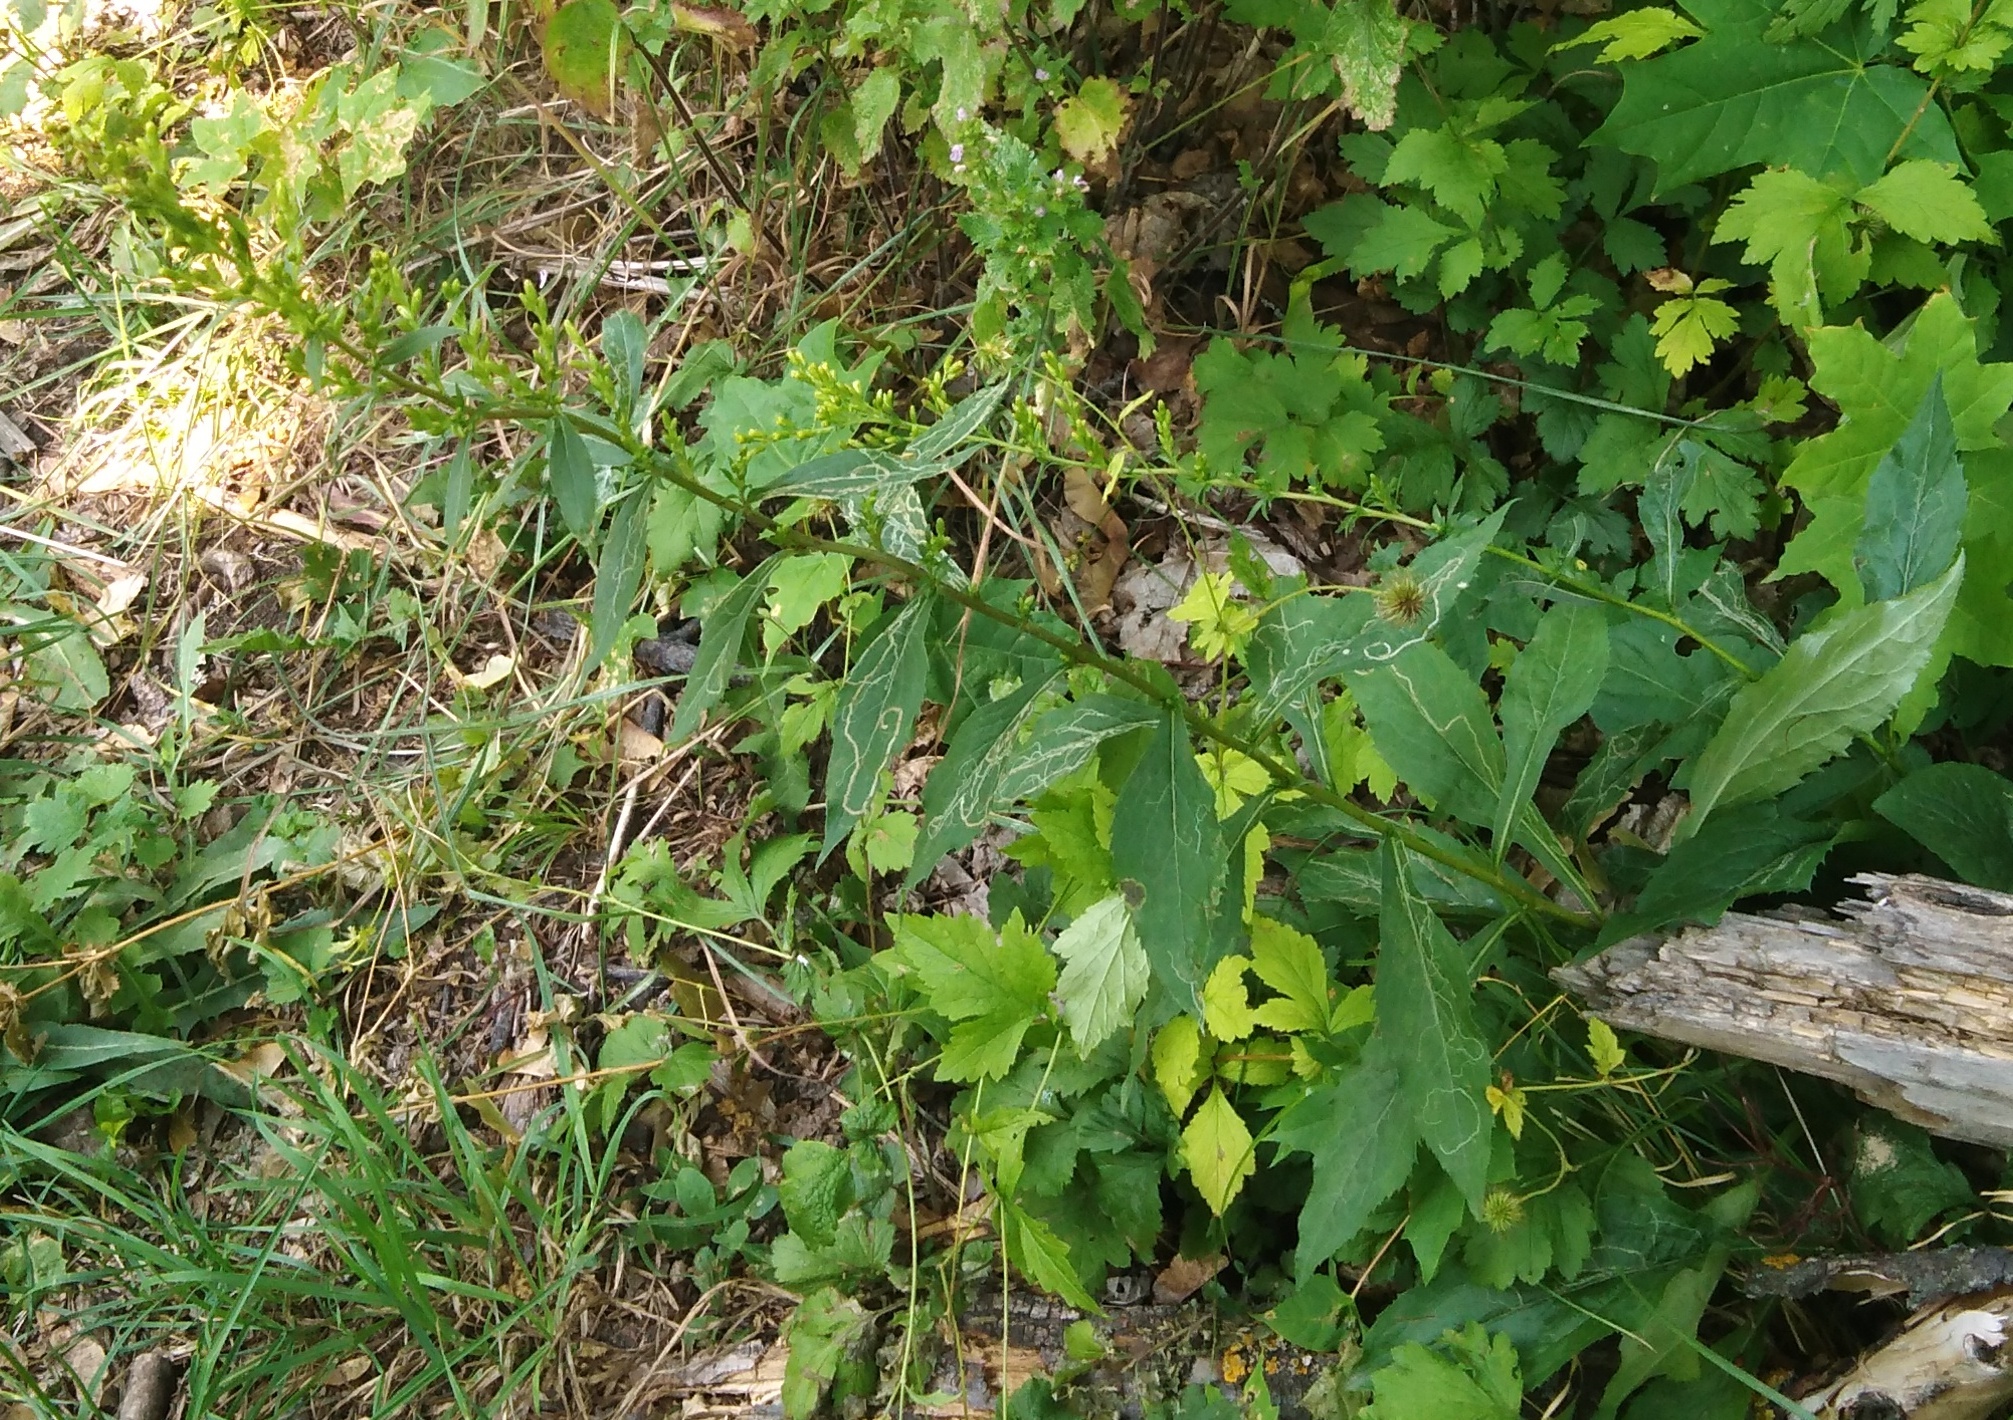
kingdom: Plantae
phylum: Tracheophyta
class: Magnoliopsida
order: Asterales
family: Asteraceae
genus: Solidago
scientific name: Solidago virgaurea
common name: Goldenrod
